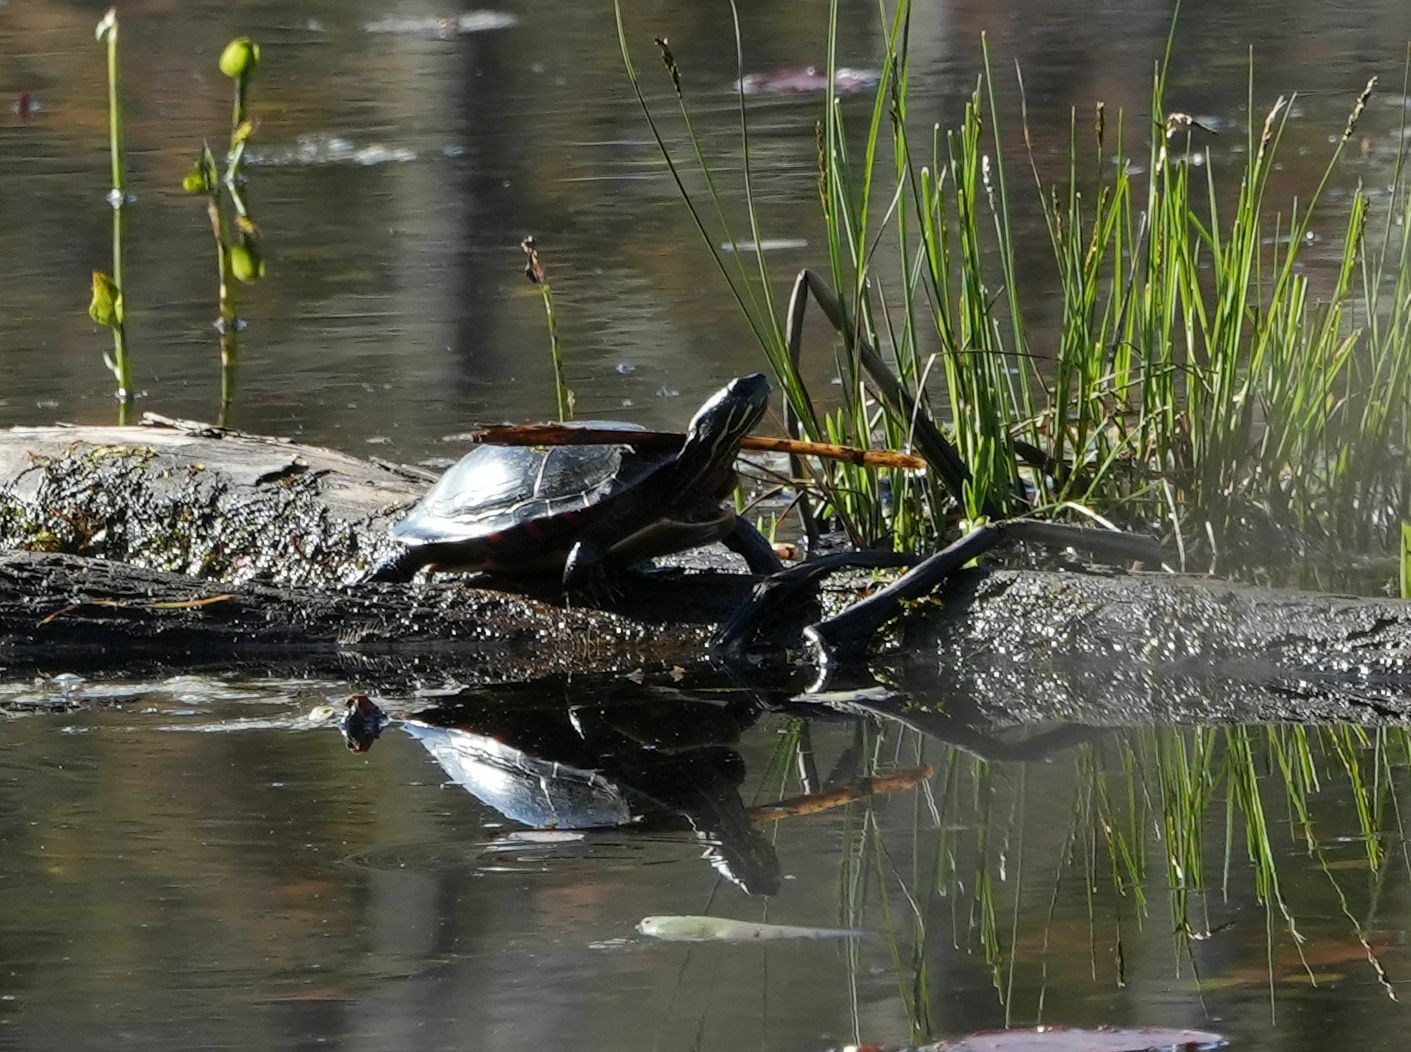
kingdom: Animalia
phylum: Chordata
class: Testudines
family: Emydidae
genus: Chrysemys
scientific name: Chrysemys picta
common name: Painted turtle
